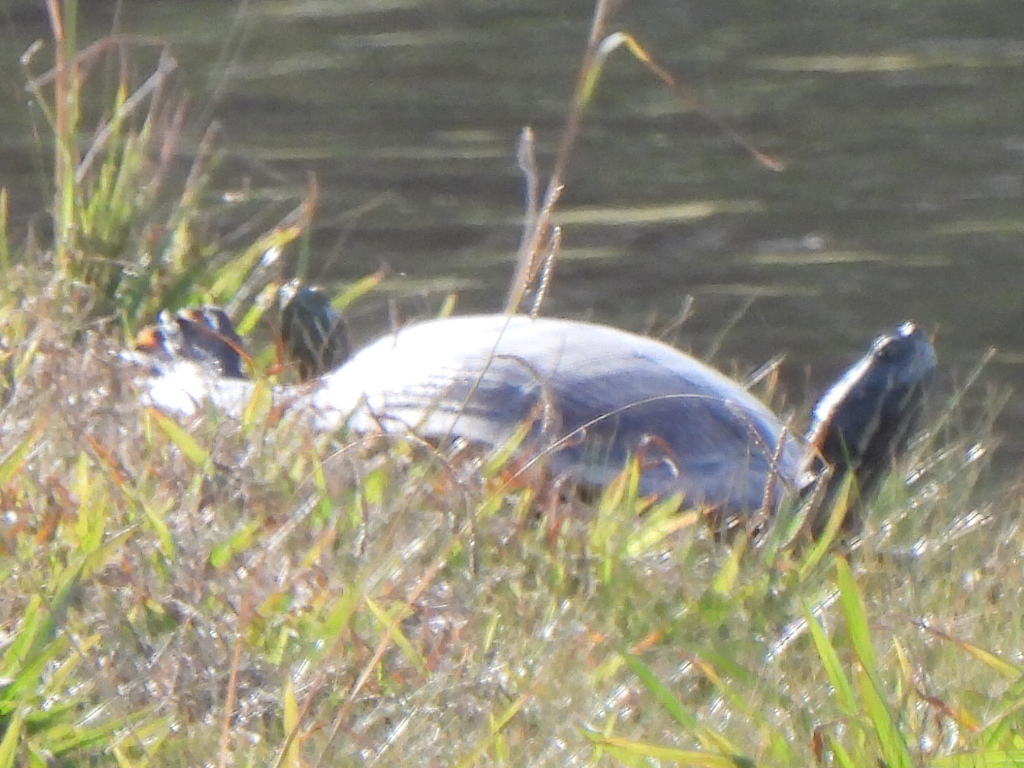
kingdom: Animalia
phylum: Chordata
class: Testudines
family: Emydidae
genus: Pseudemys
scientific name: Pseudemys concinna
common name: Eastern river cooter
